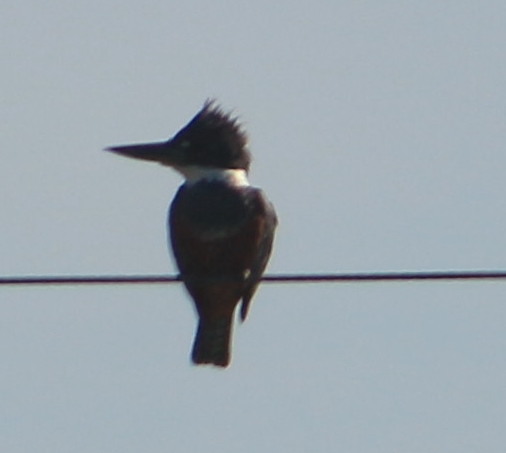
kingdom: Animalia
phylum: Chordata
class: Aves
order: Coraciiformes
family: Alcedinidae
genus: Megaceryle
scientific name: Megaceryle torquata
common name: Ringed kingfisher
